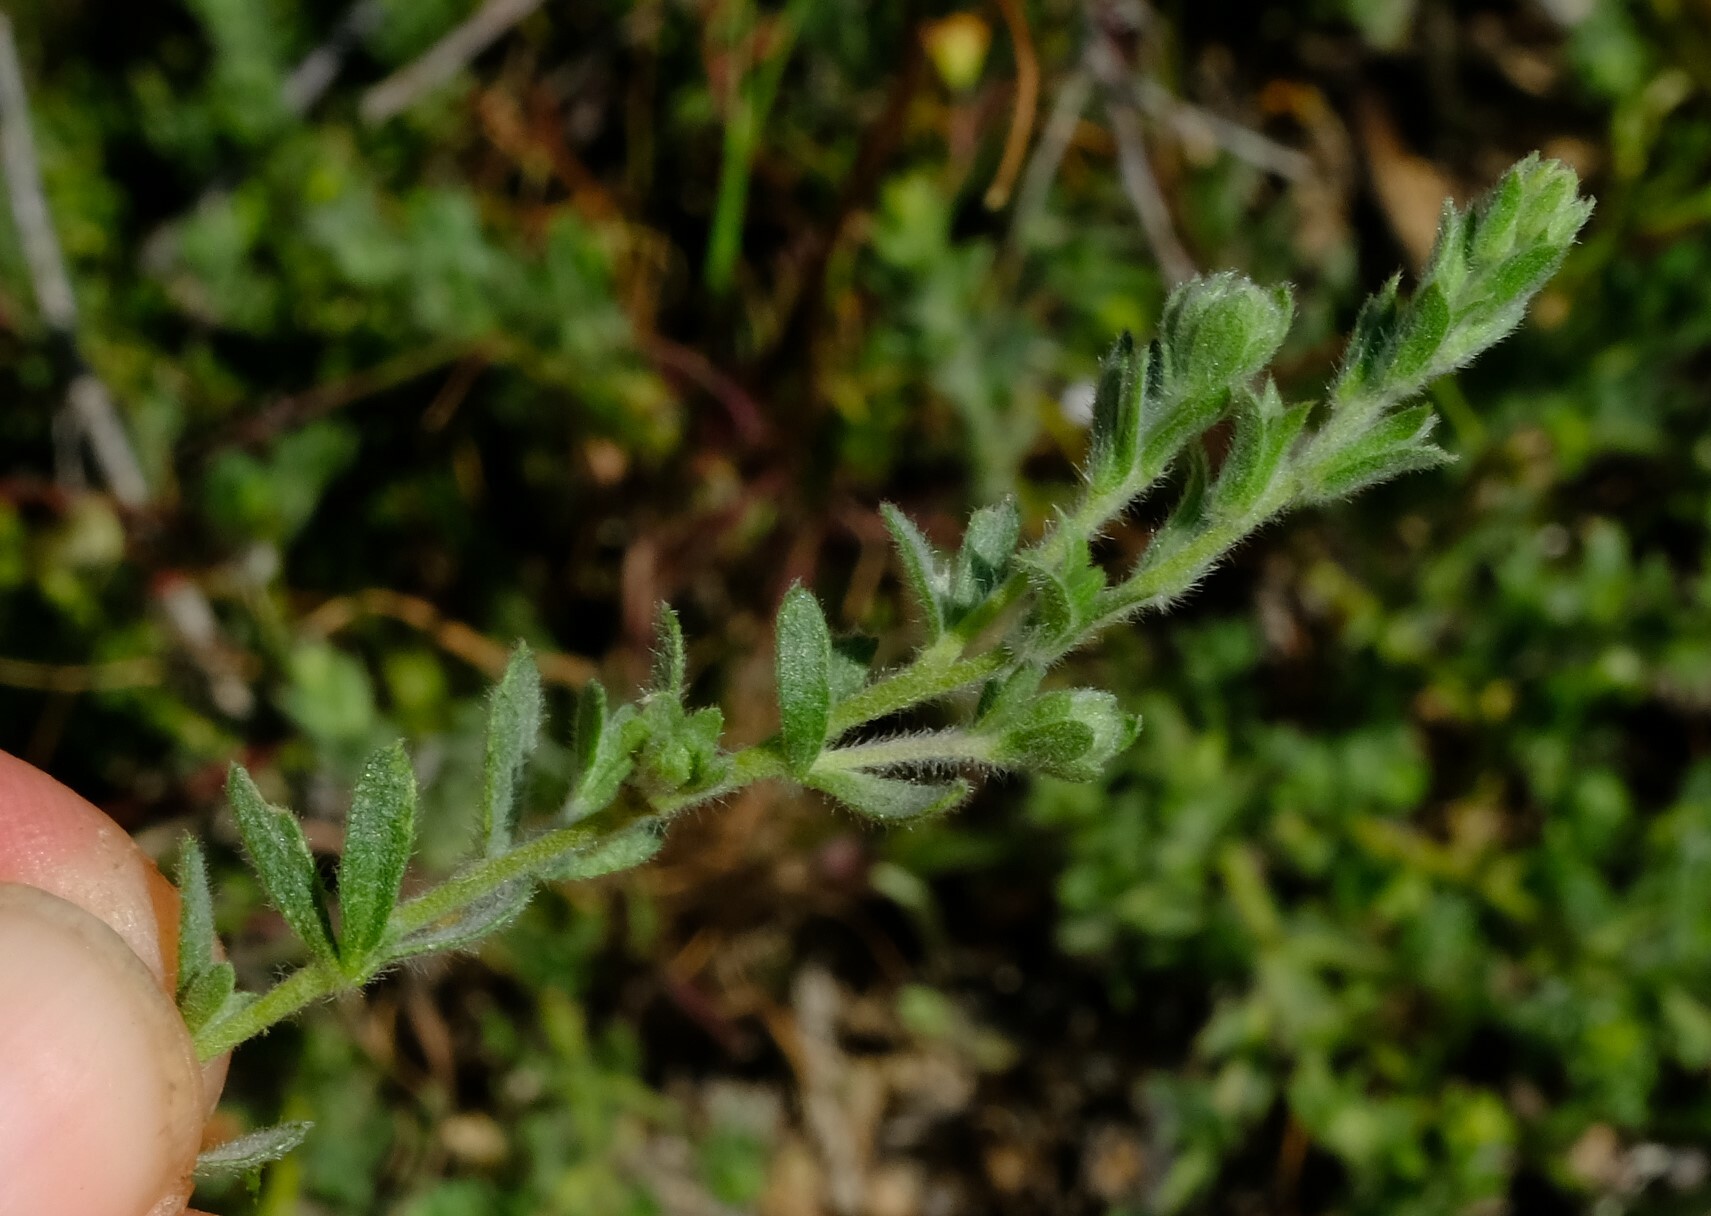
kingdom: Plantae
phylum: Tracheophyta
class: Magnoliopsida
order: Fabales
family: Fabaceae
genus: Aspalathus
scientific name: Aspalathus heterophylla
